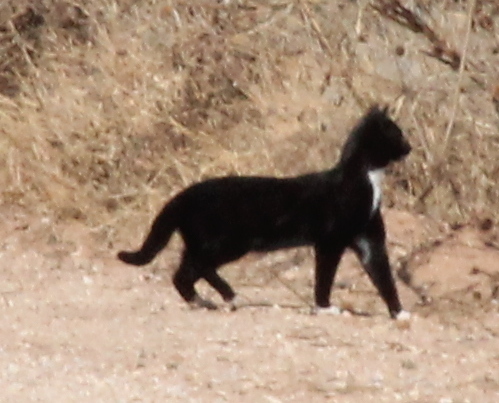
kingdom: Animalia
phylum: Chordata
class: Mammalia
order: Carnivora
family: Felidae
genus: Felis
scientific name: Felis catus
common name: Domestic cat
